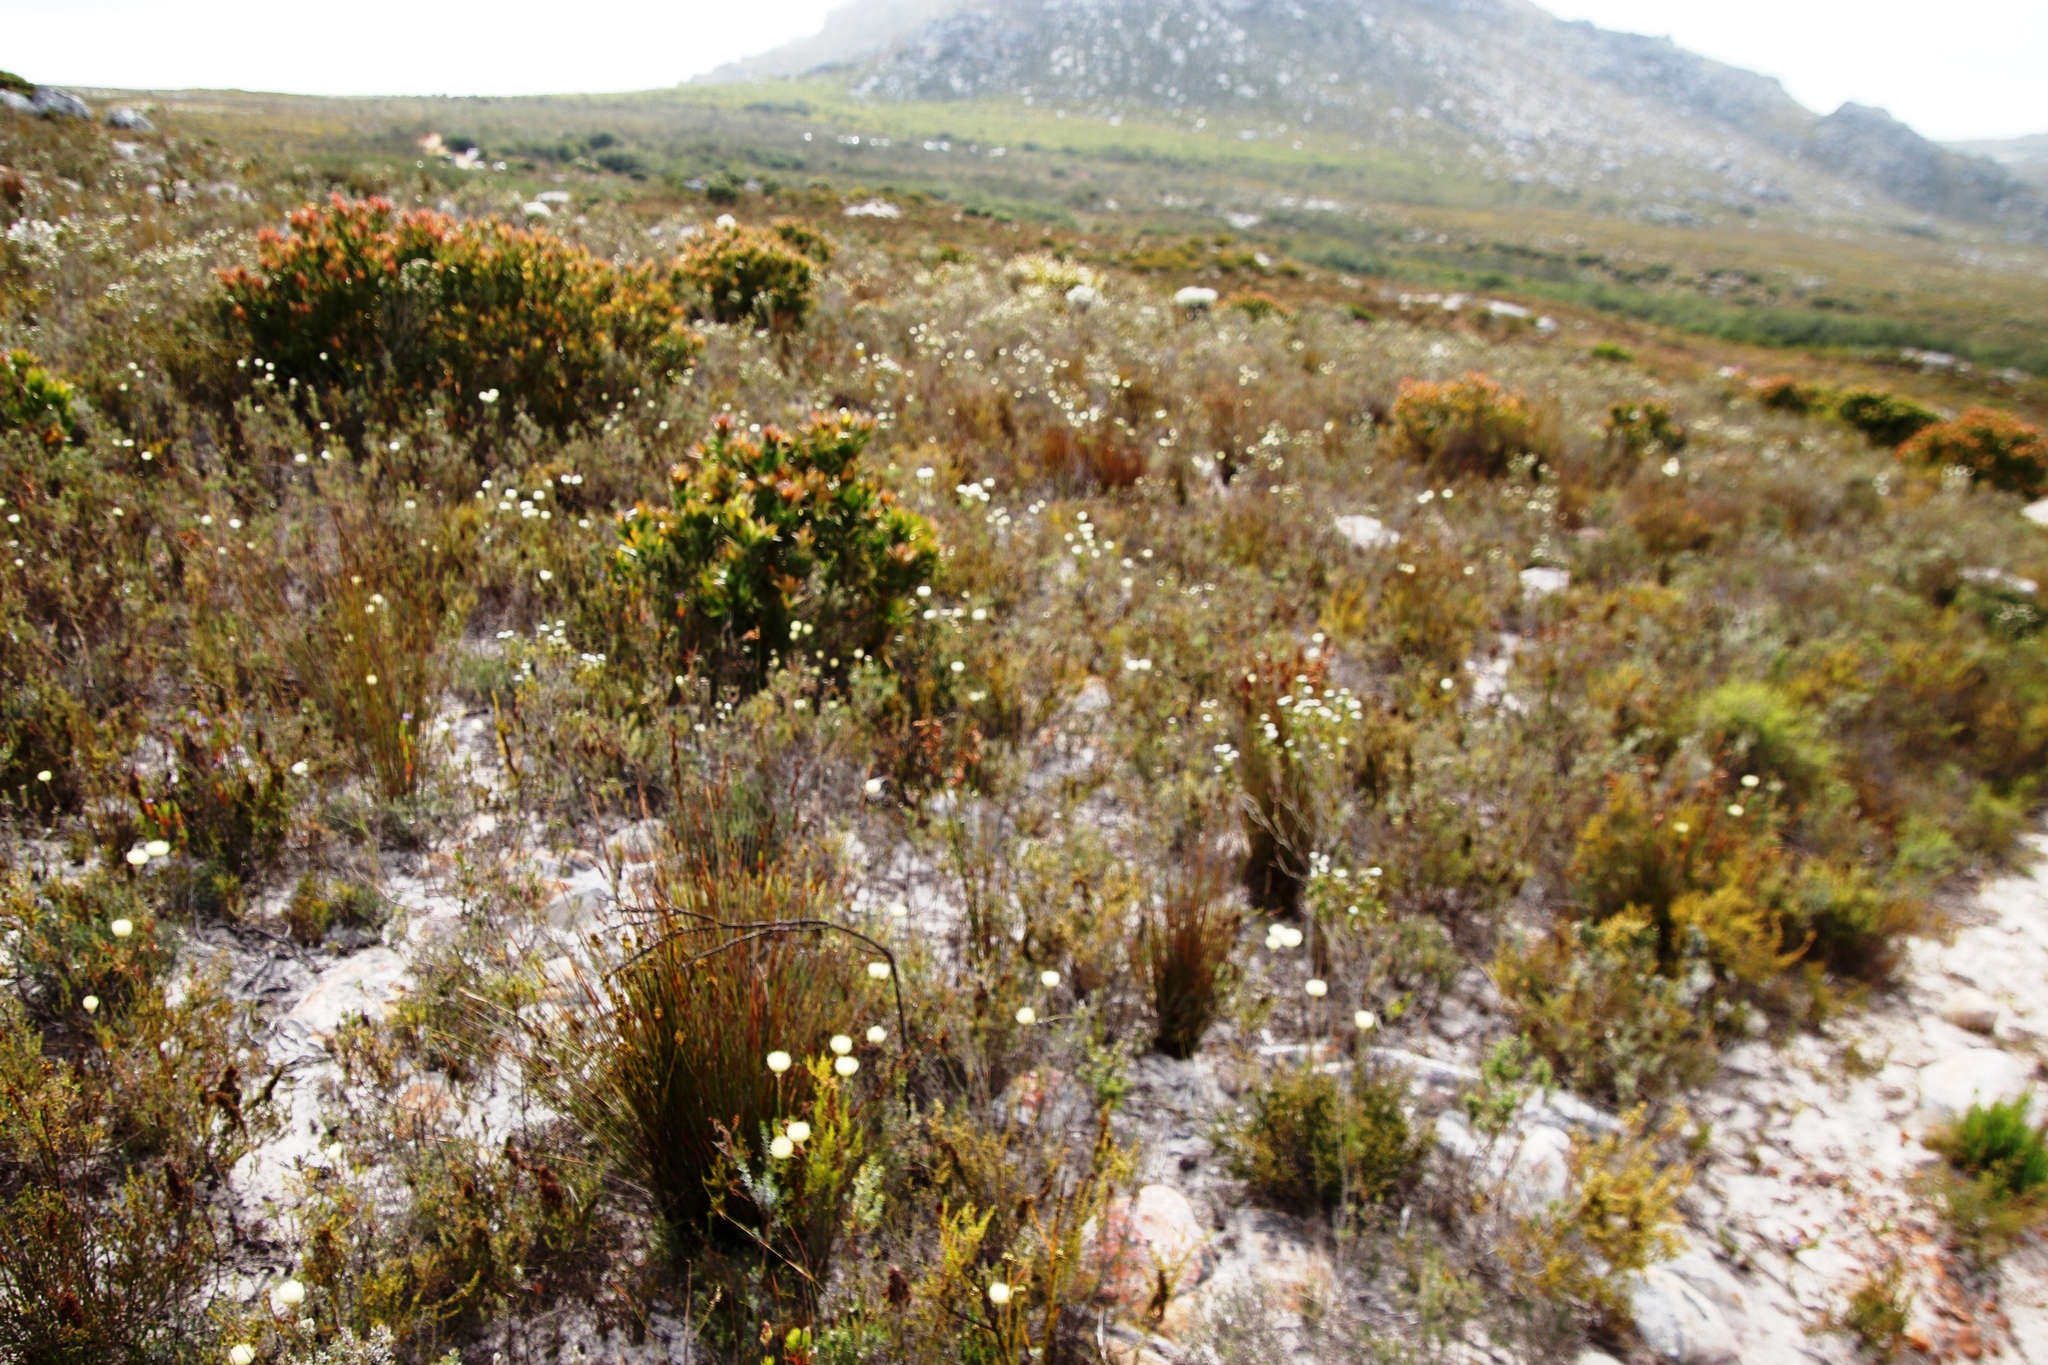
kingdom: Plantae
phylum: Tracheophyta
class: Magnoliopsida
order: Asterales
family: Asteraceae
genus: Edmondia
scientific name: Edmondia sesamoides
